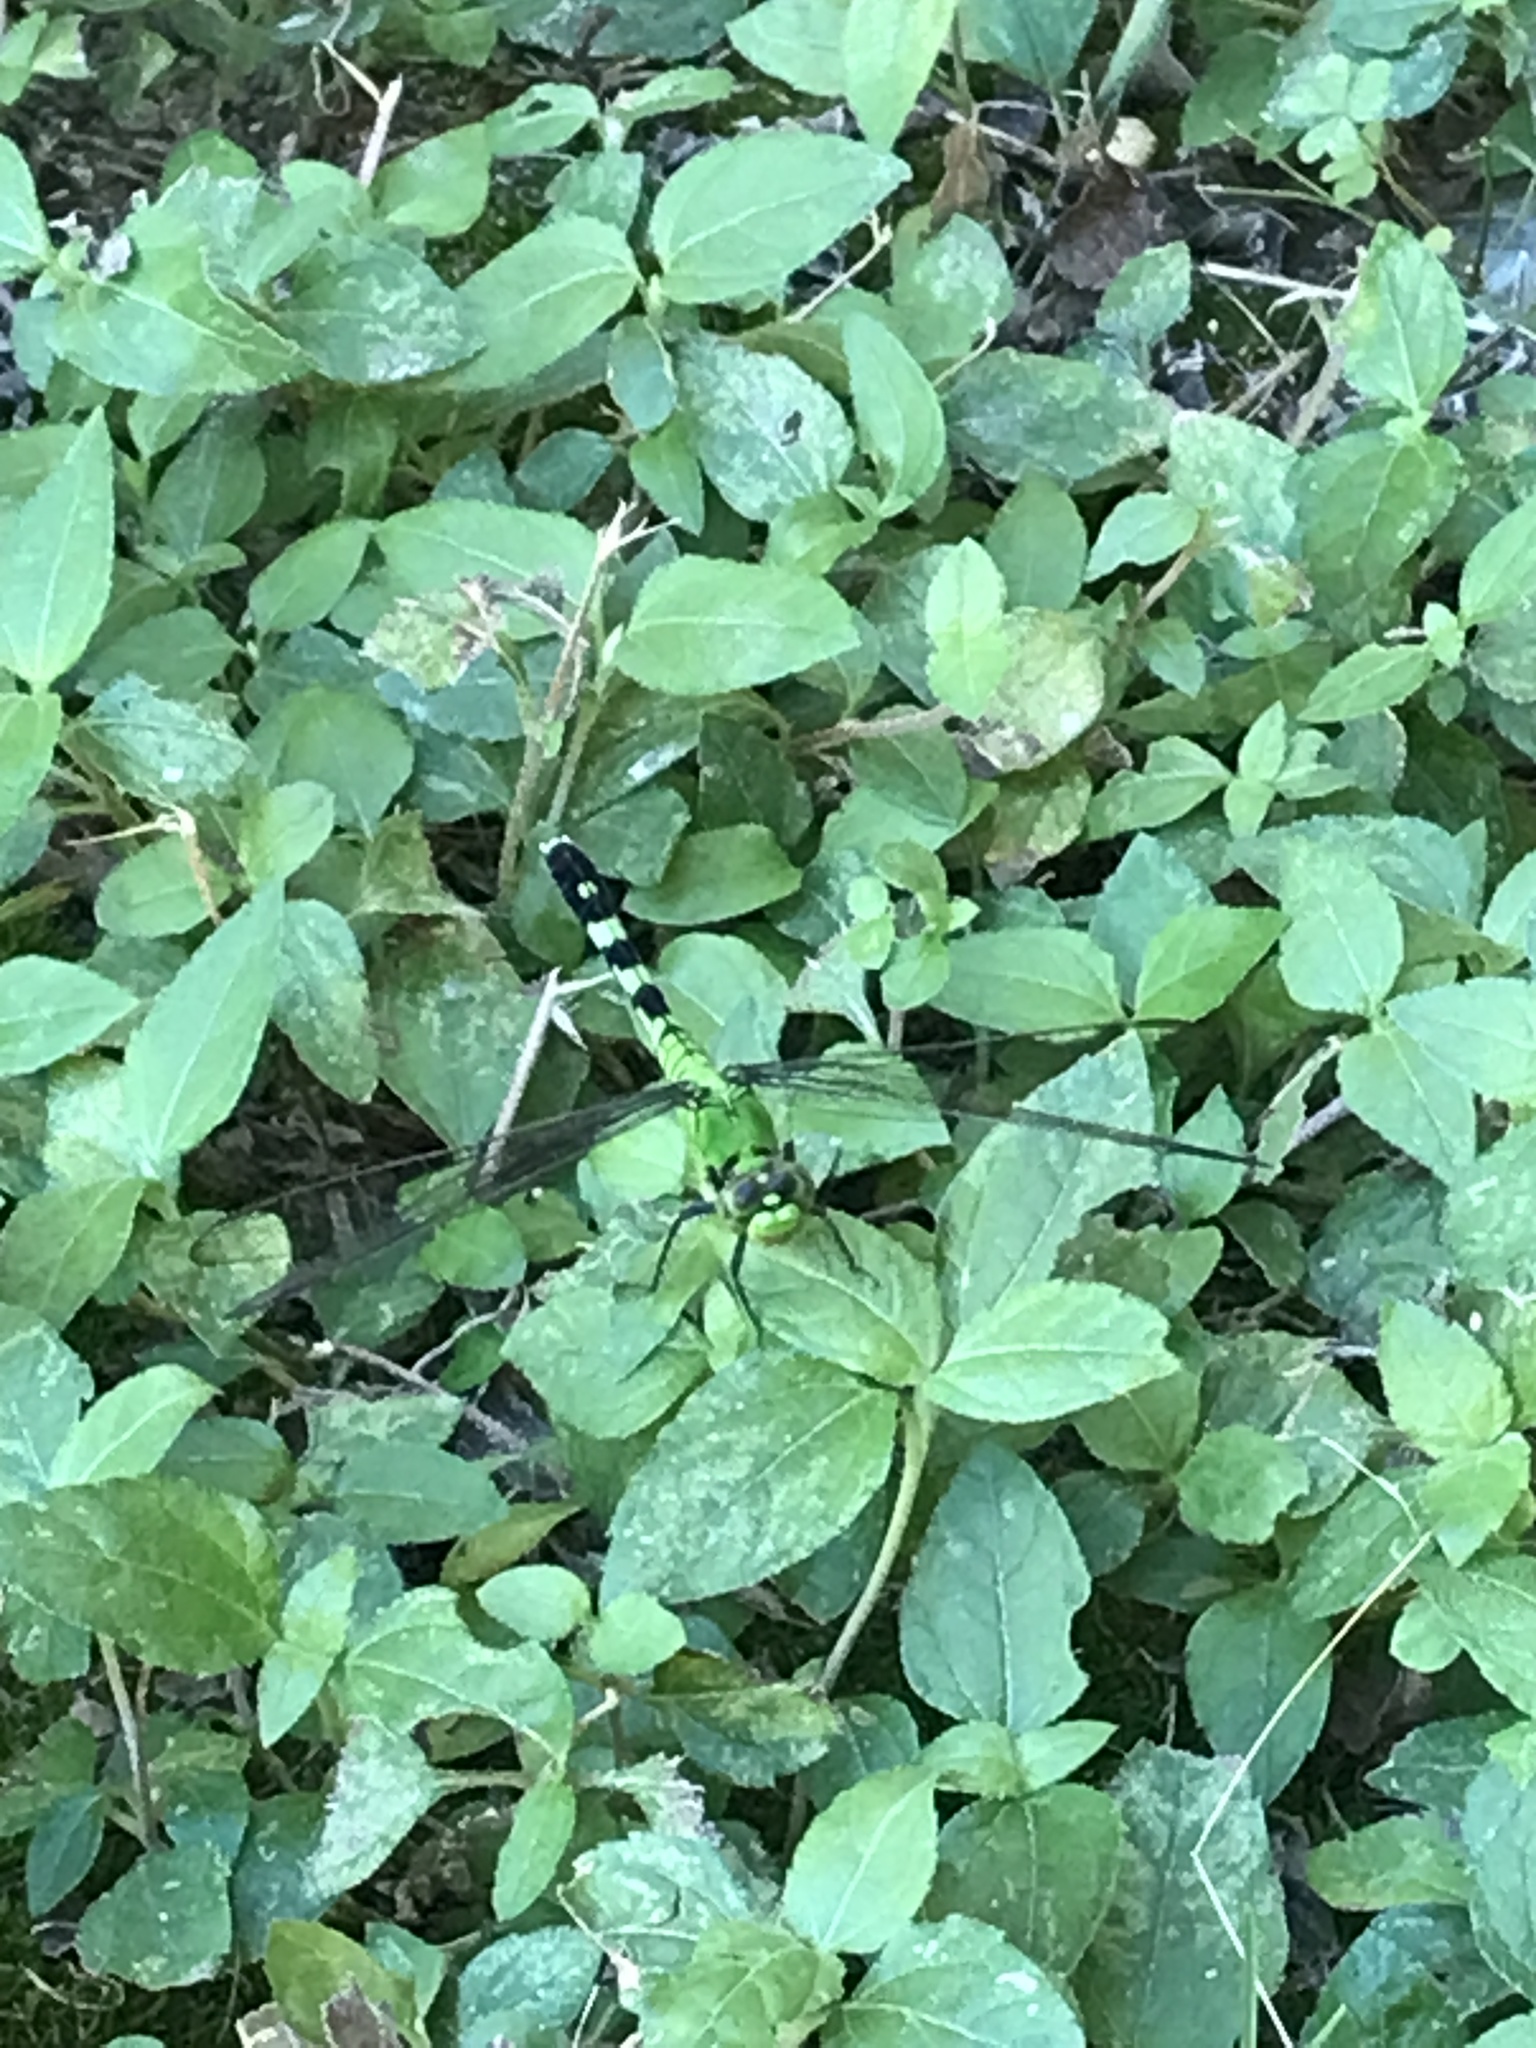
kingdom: Animalia
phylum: Arthropoda
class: Insecta
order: Odonata
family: Libellulidae
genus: Erythemis
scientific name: Erythemis simplicicollis
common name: Eastern pondhawk
